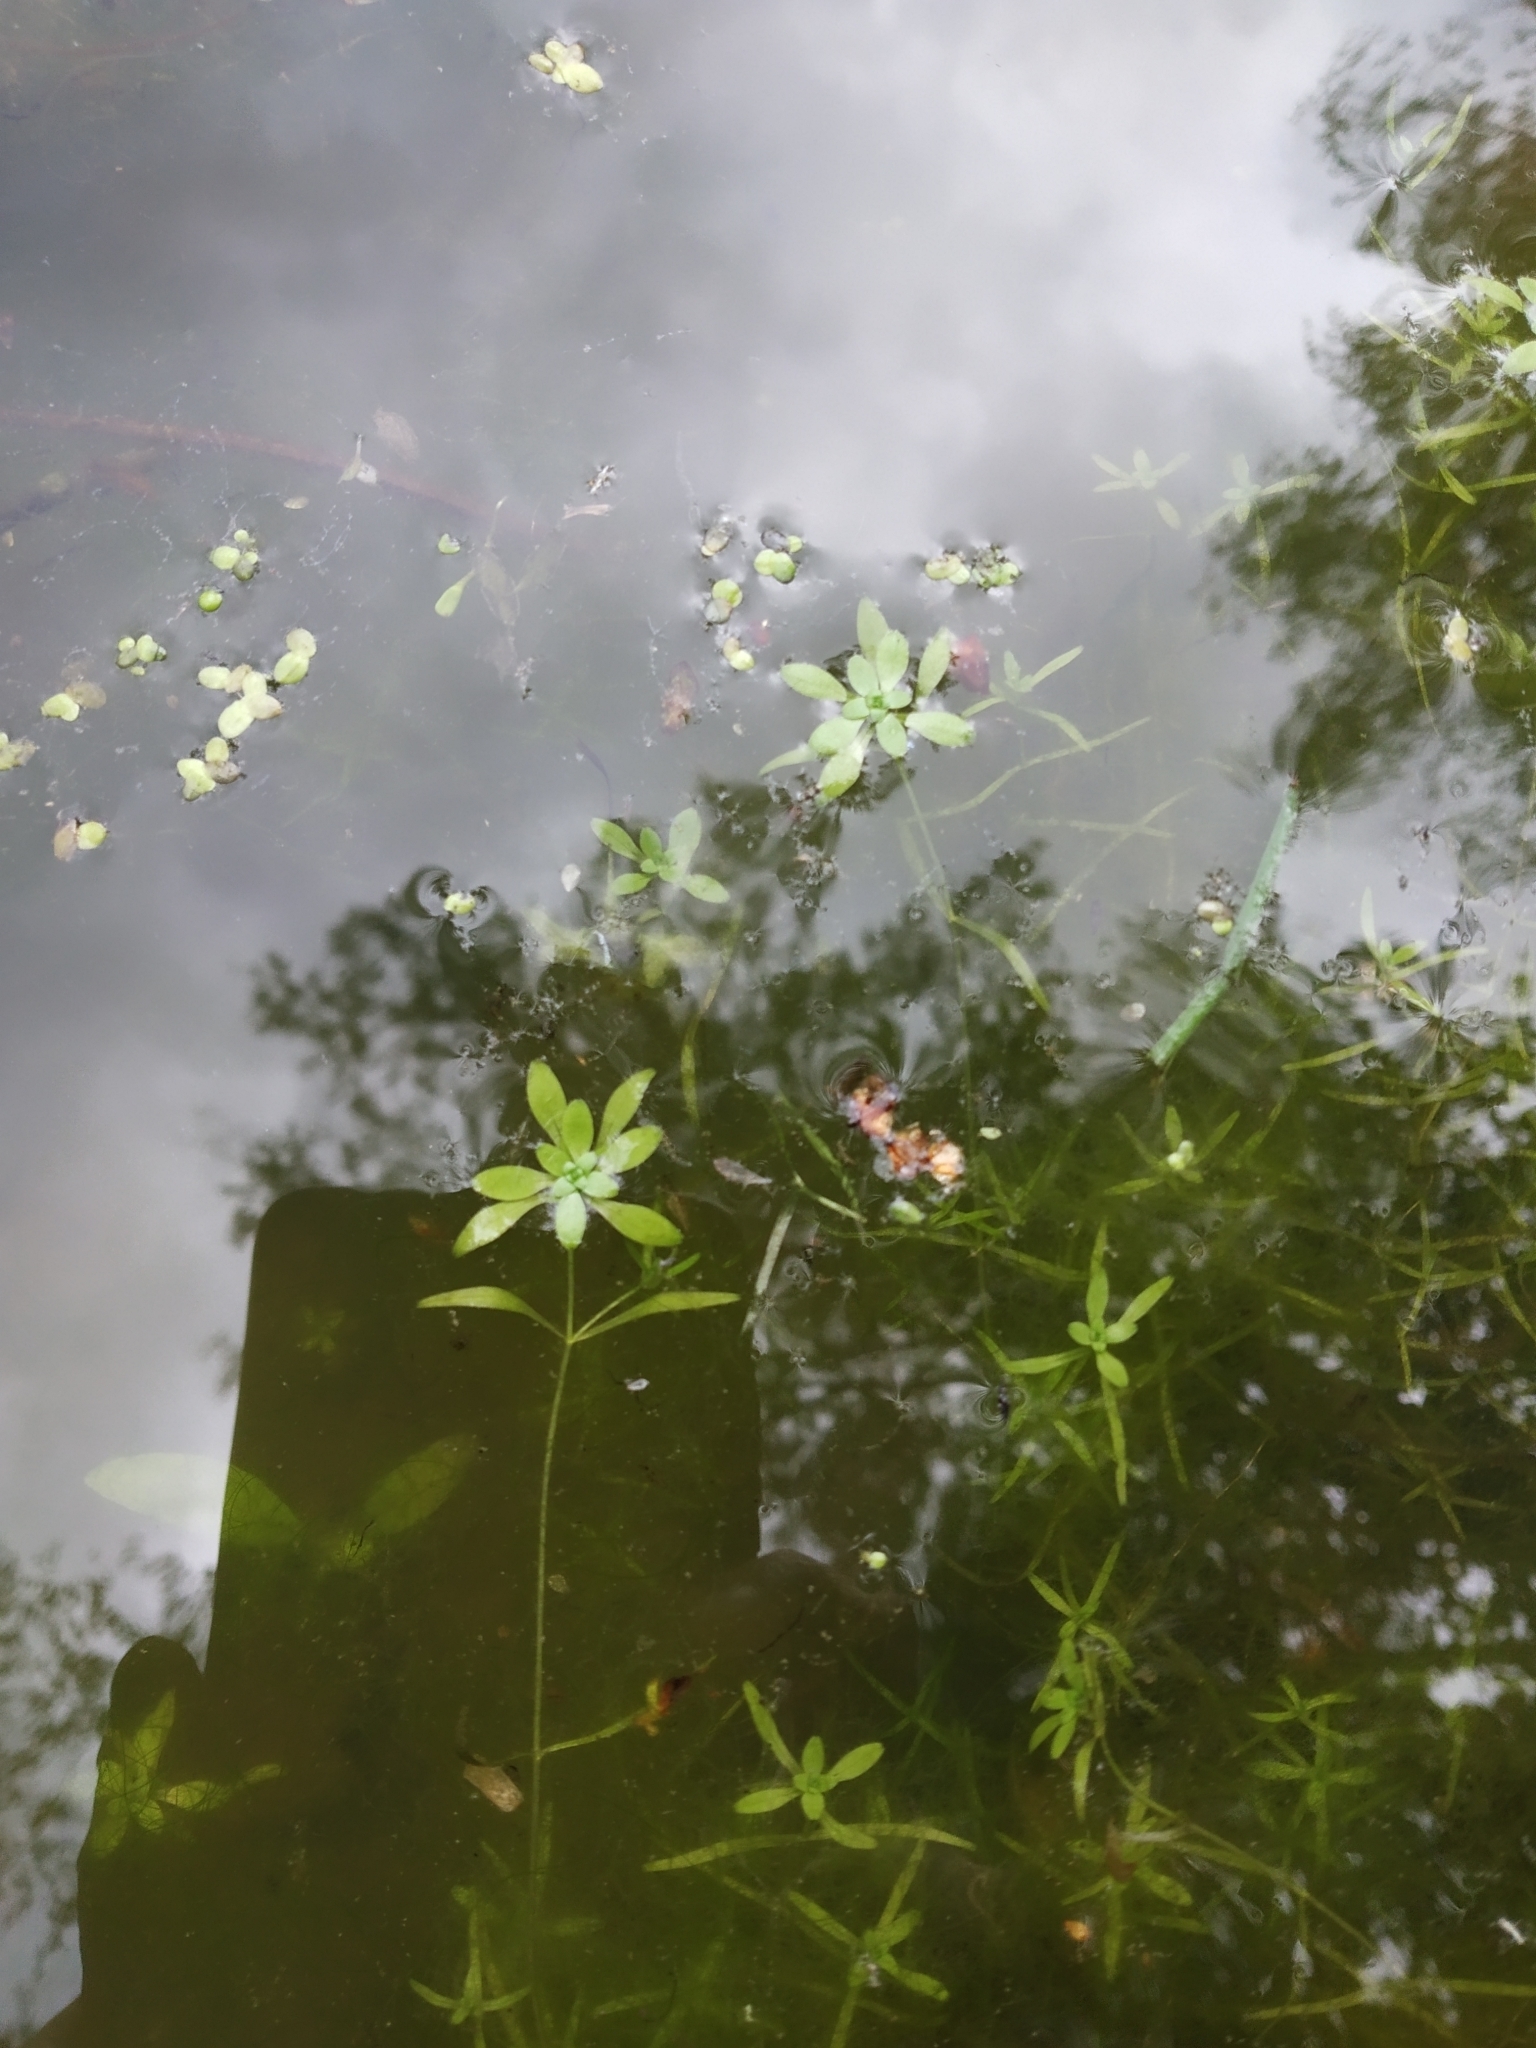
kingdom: Plantae
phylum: Tracheophyta
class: Magnoliopsida
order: Lamiales
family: Plantaginaceae
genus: Callitriche
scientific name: Callitriche palustris
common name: Spring water-starwort
